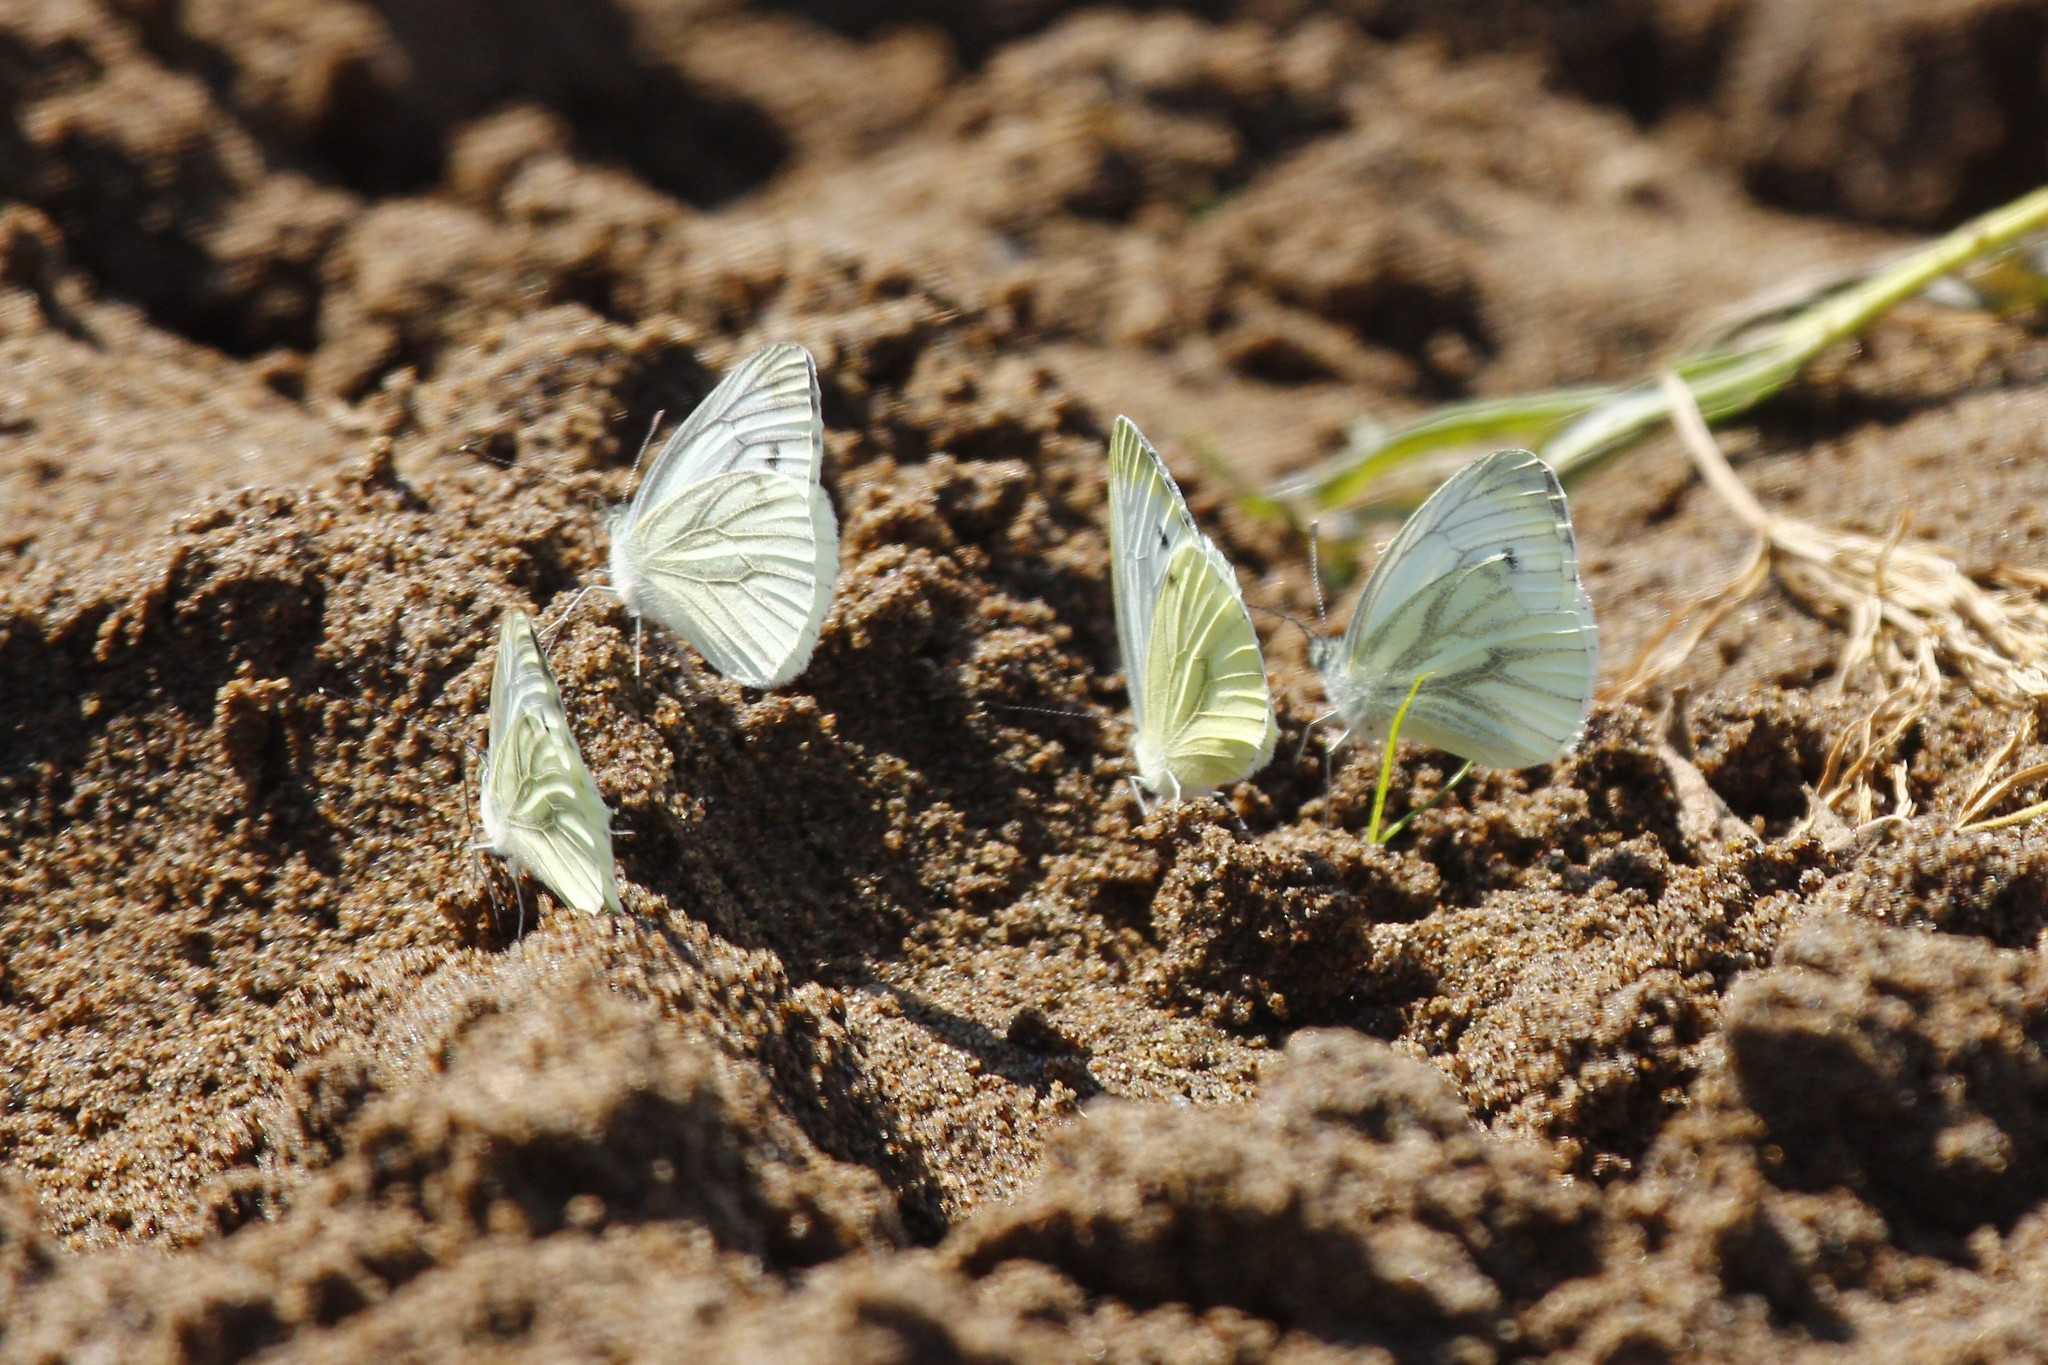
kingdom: Animalia
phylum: Arthropoda
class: Insecta
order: Lepidoptera
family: Pieridae
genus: Pieris
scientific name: Pieris napi
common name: Green-veined white
